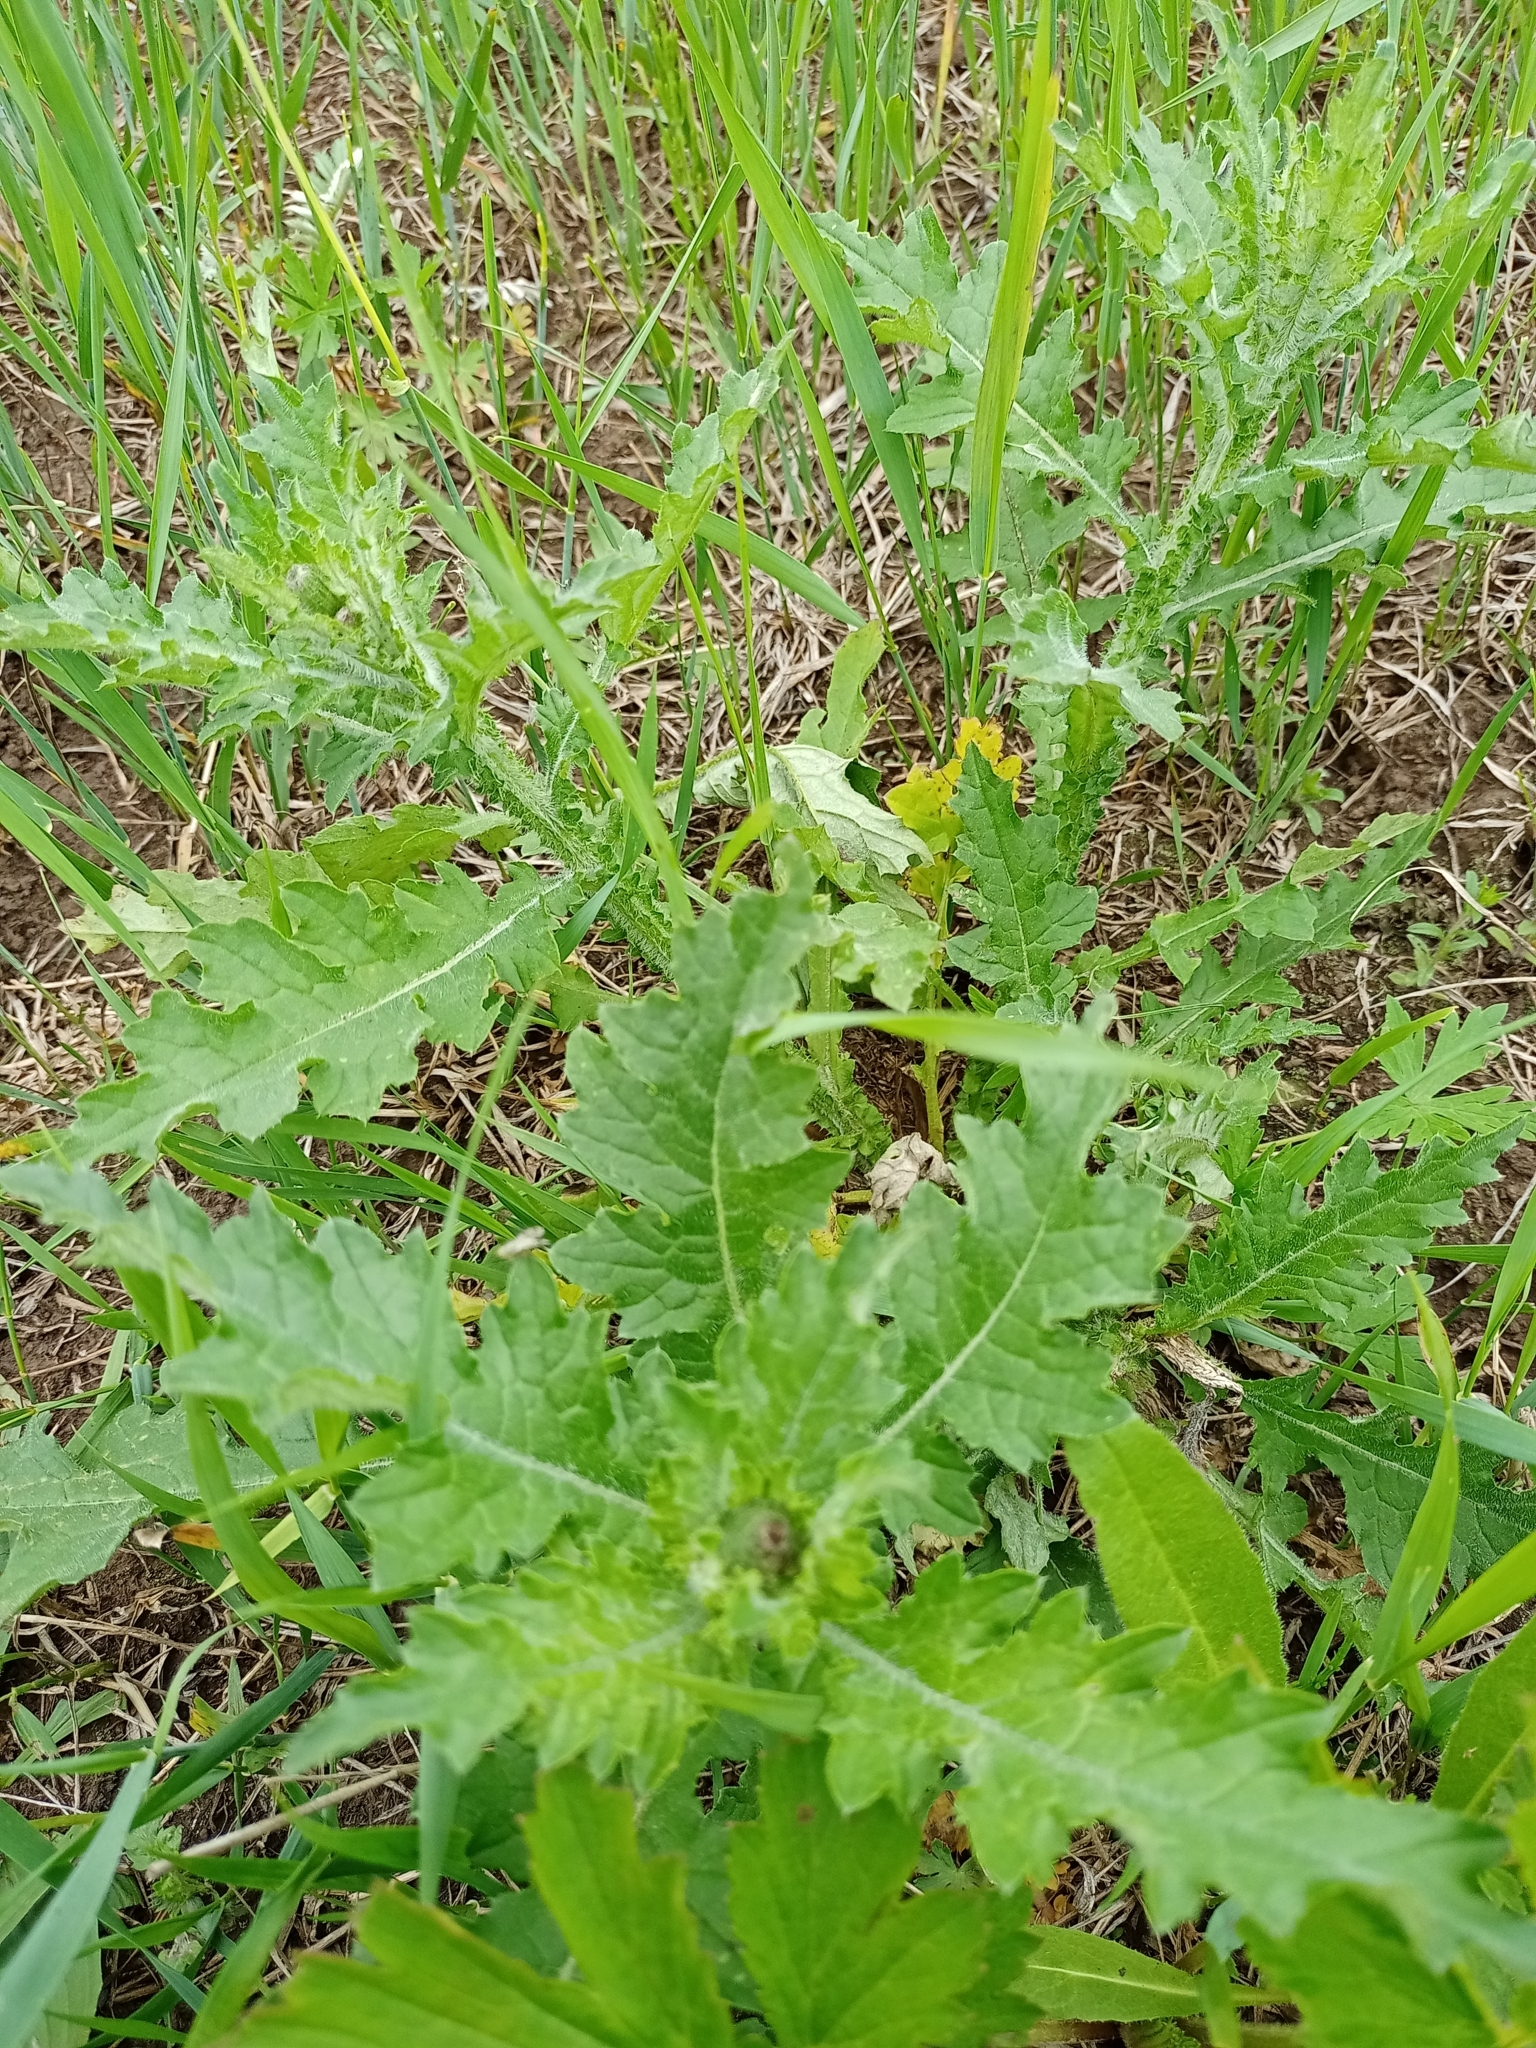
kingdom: Plantae
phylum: Tracheophyta
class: Magnoliopsida
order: Asterales
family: Asteraceae
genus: Carduus
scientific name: Carduus crispus
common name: Welted thistle
